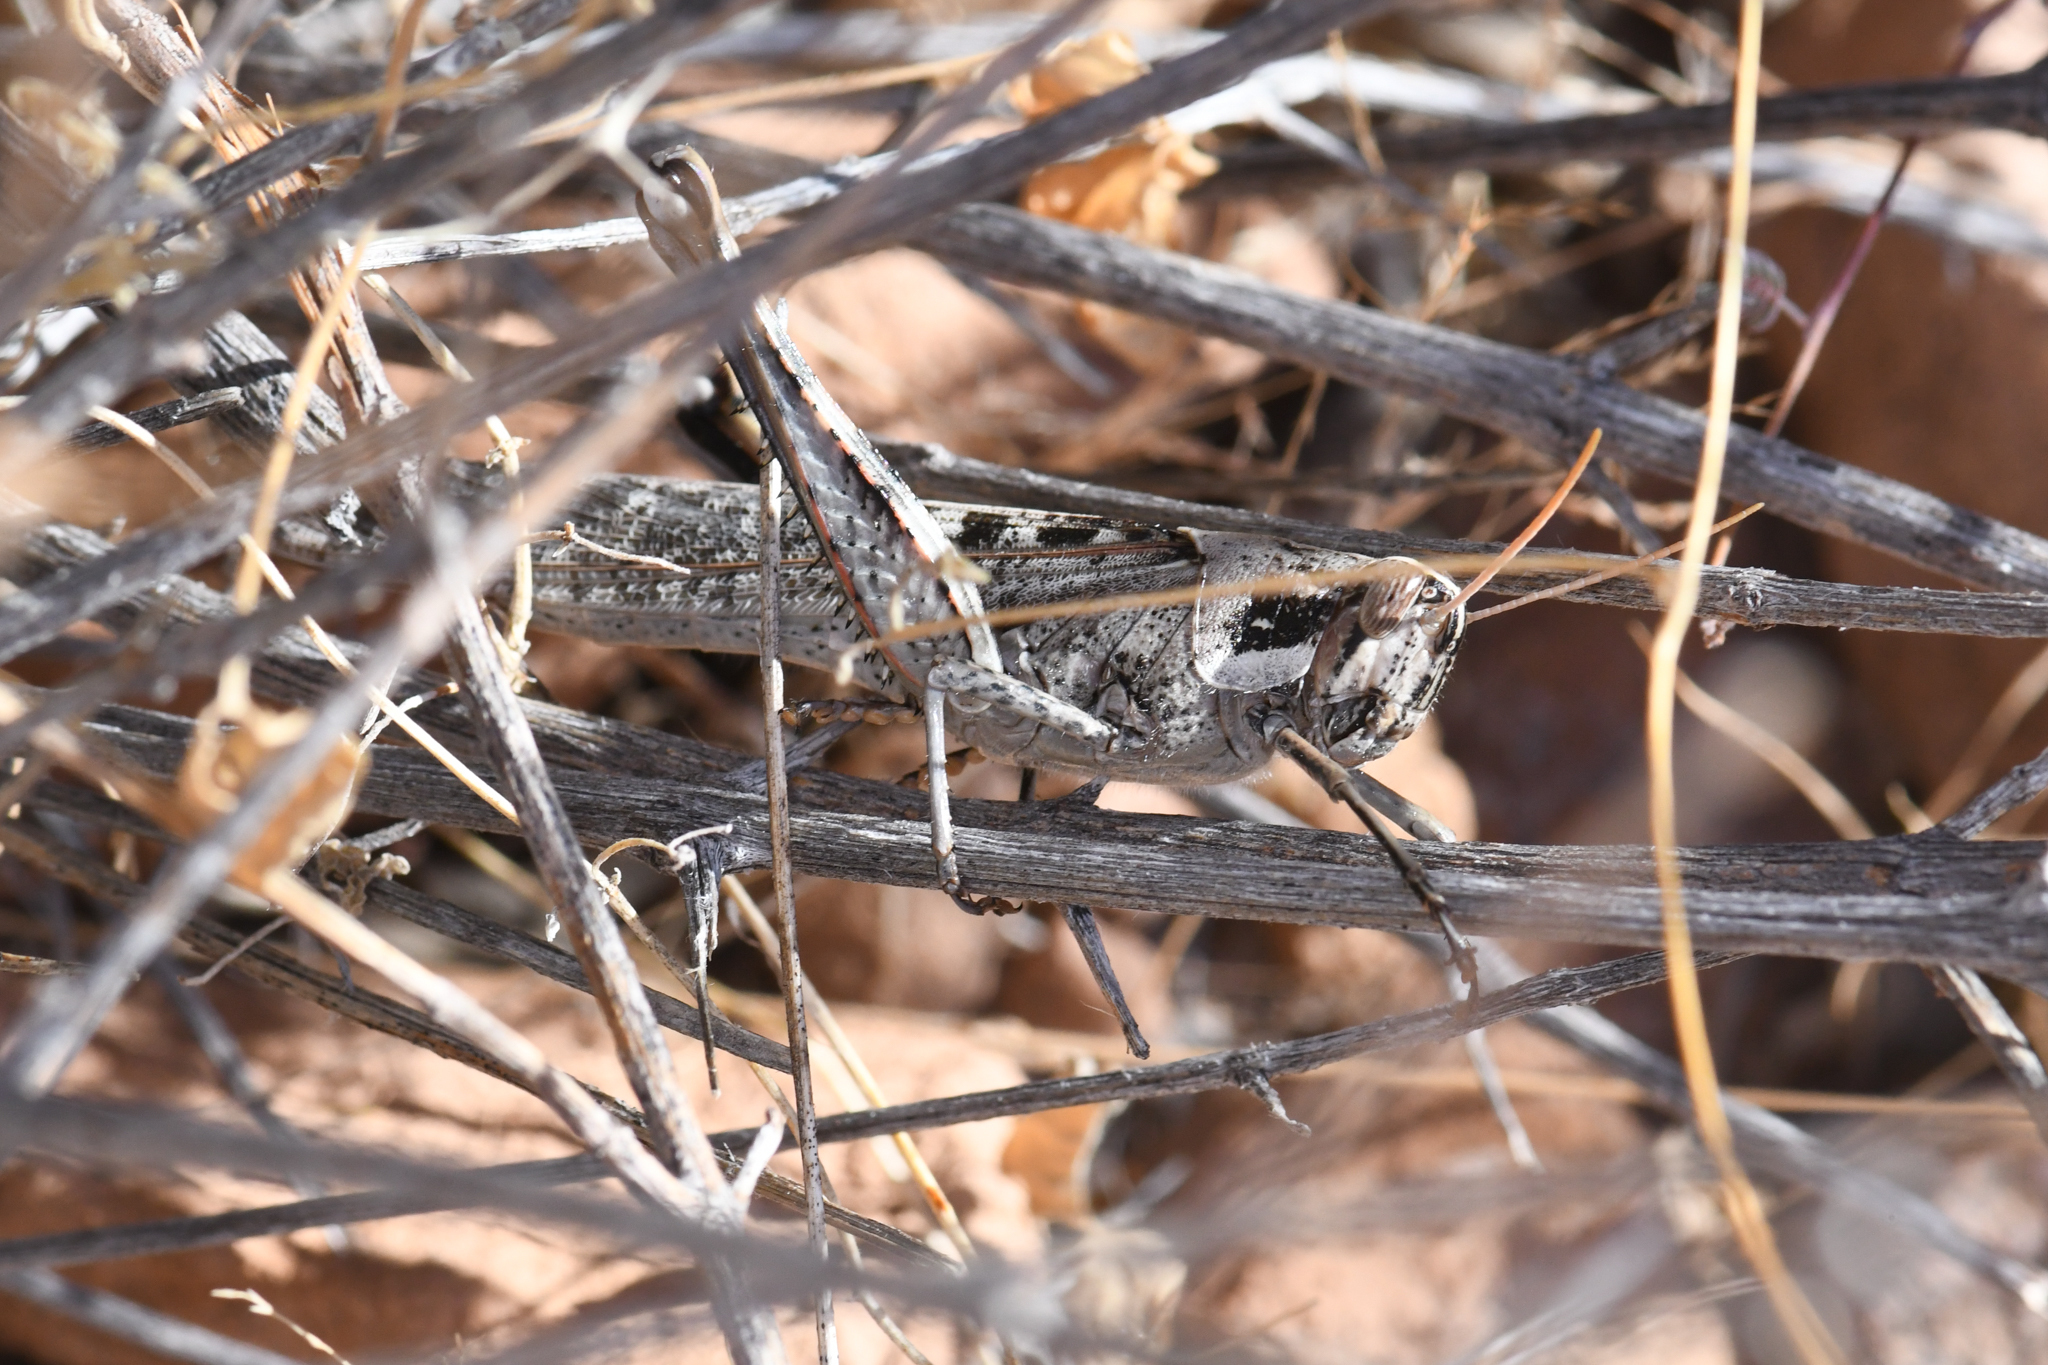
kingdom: Animalia
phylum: Arthropoda
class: Insecta
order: Orthoptera
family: Acrididae
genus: Schistocerca
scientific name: Schistocerca nitens
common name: Vagrant grasshopper
